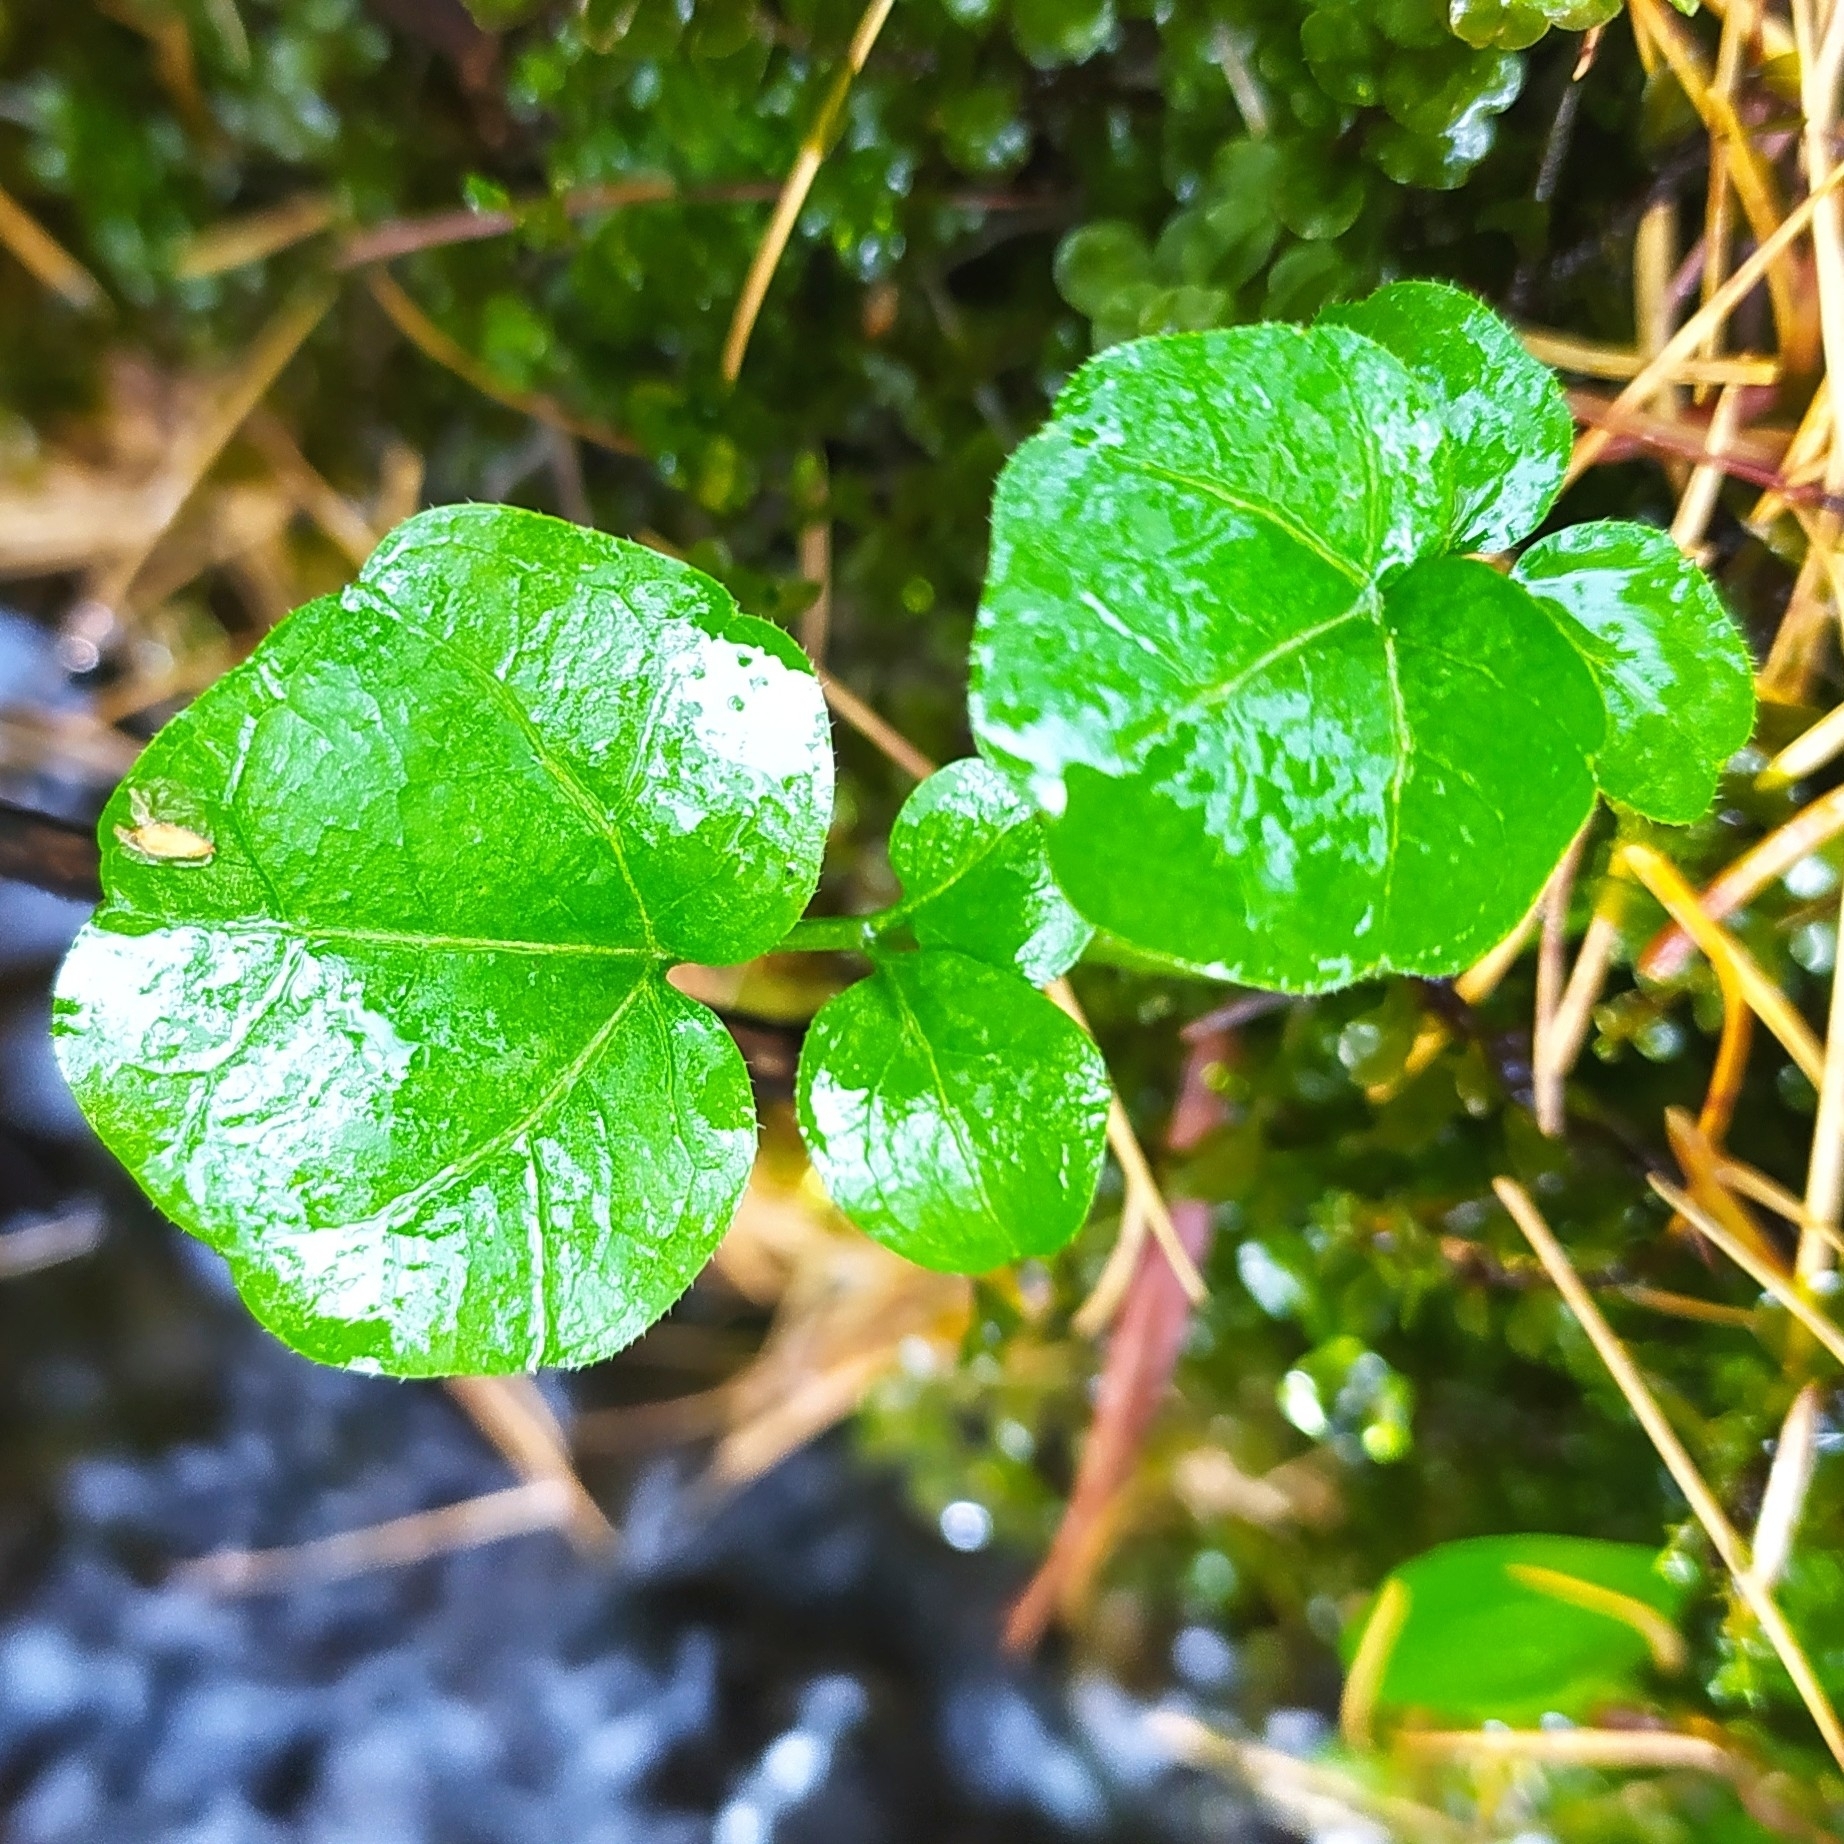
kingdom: Plantae
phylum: Tracheophyta
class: Magnoliopsida
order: Brassicales
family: Brassicaceae
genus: Cardamine
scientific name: Cardamine amara
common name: Large bitter-cress
